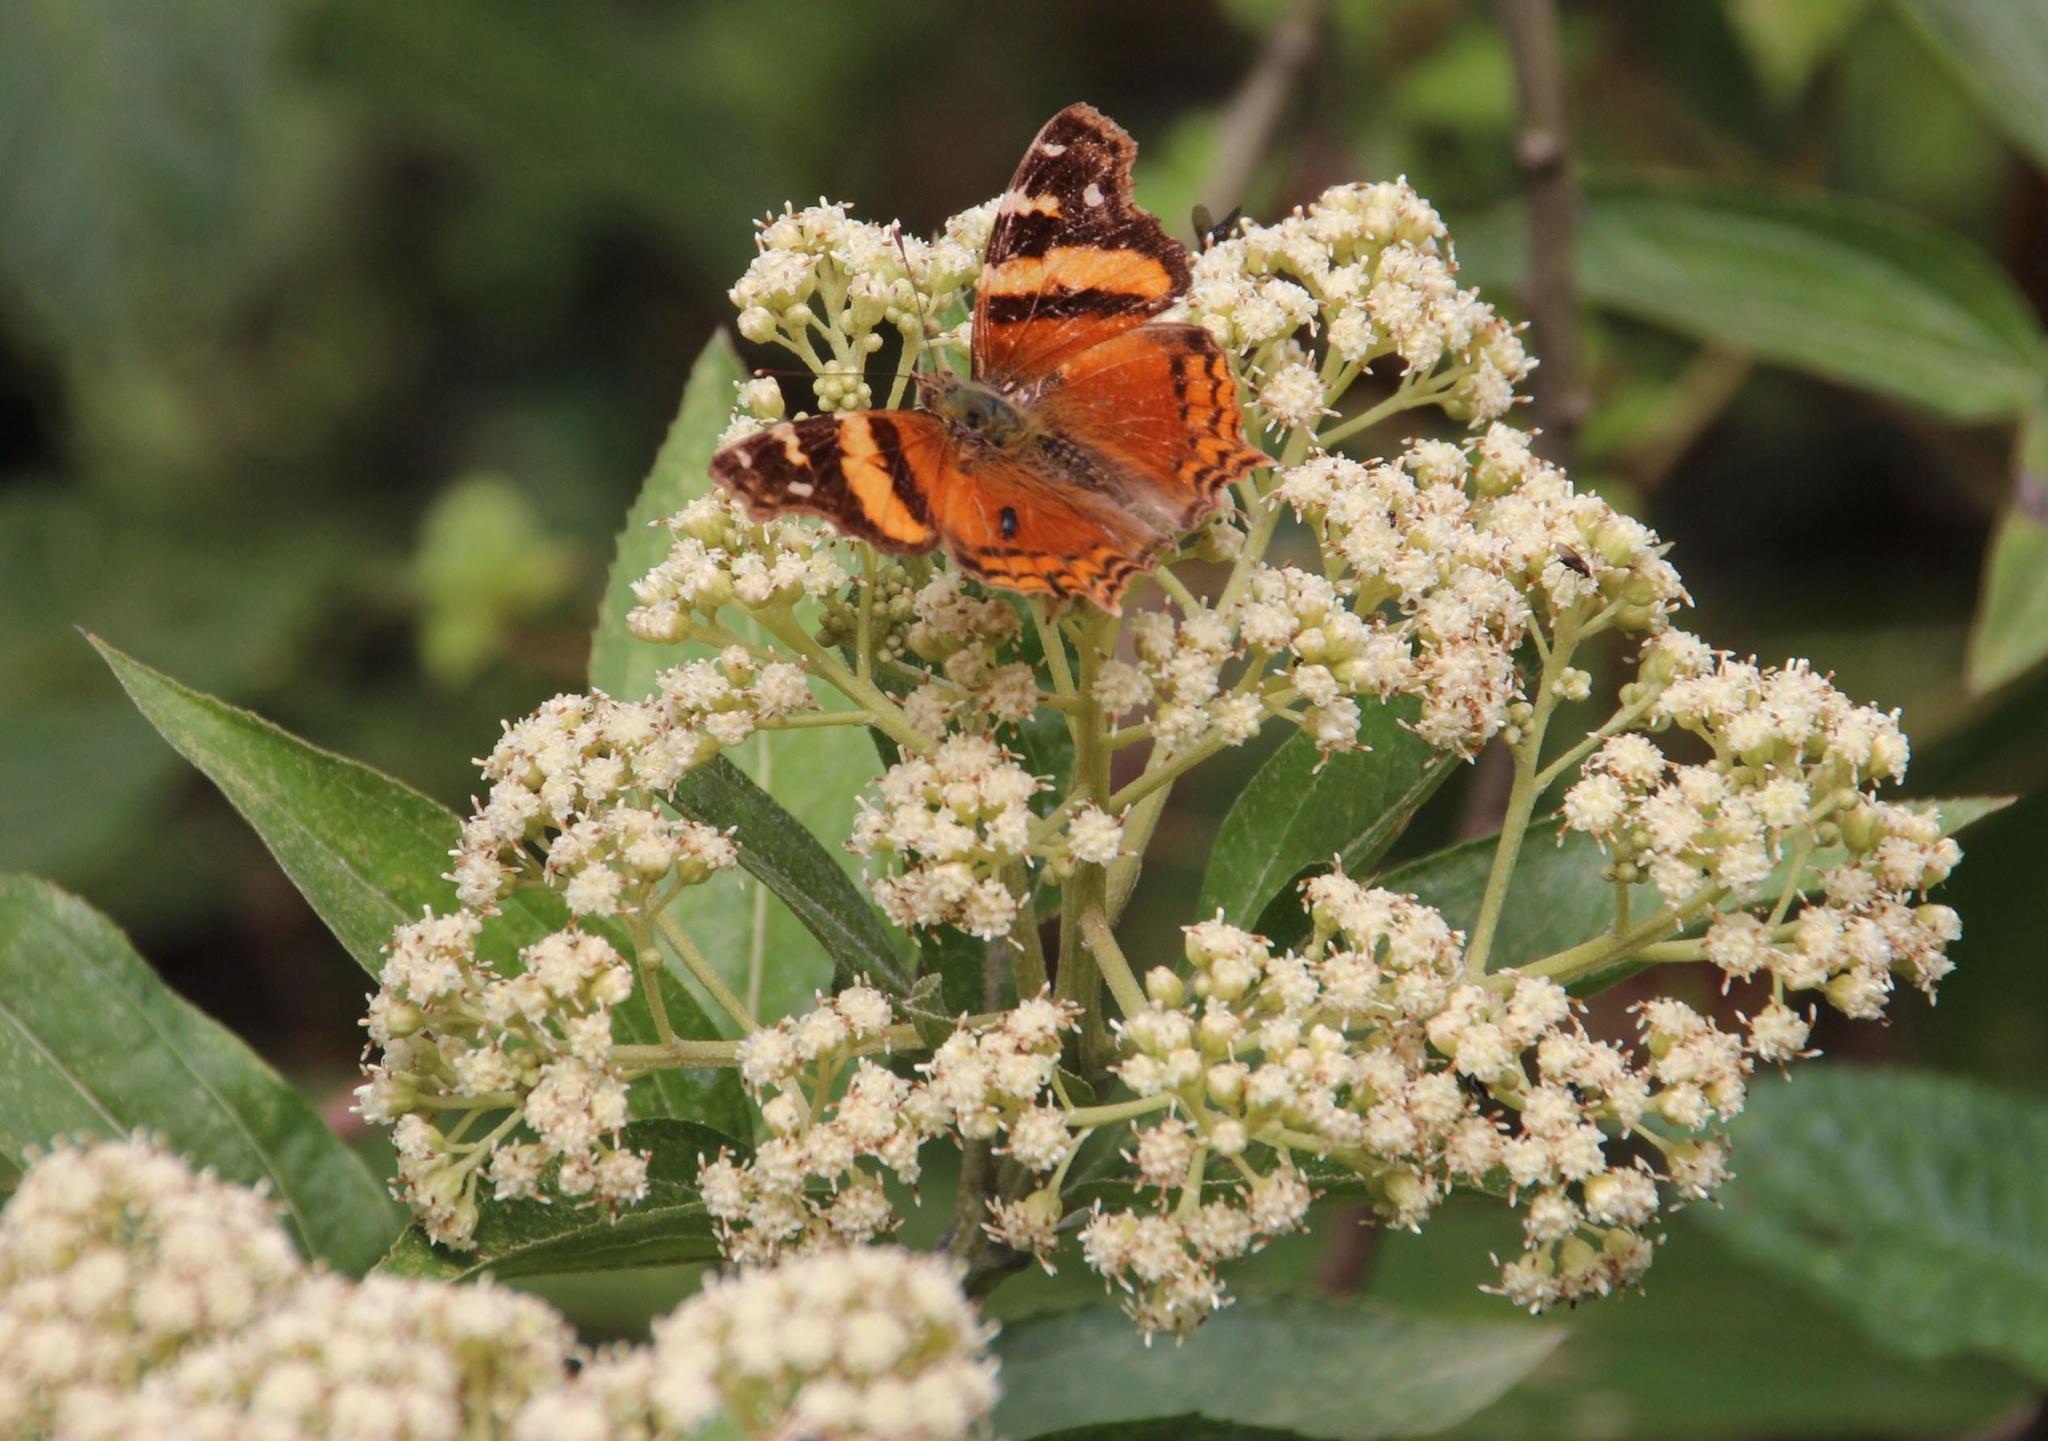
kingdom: Animalia
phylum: Arthropoda
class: Insecta
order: Lepidoptera
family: Nymphalidae
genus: Hypanartia
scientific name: Hypanartia bella
